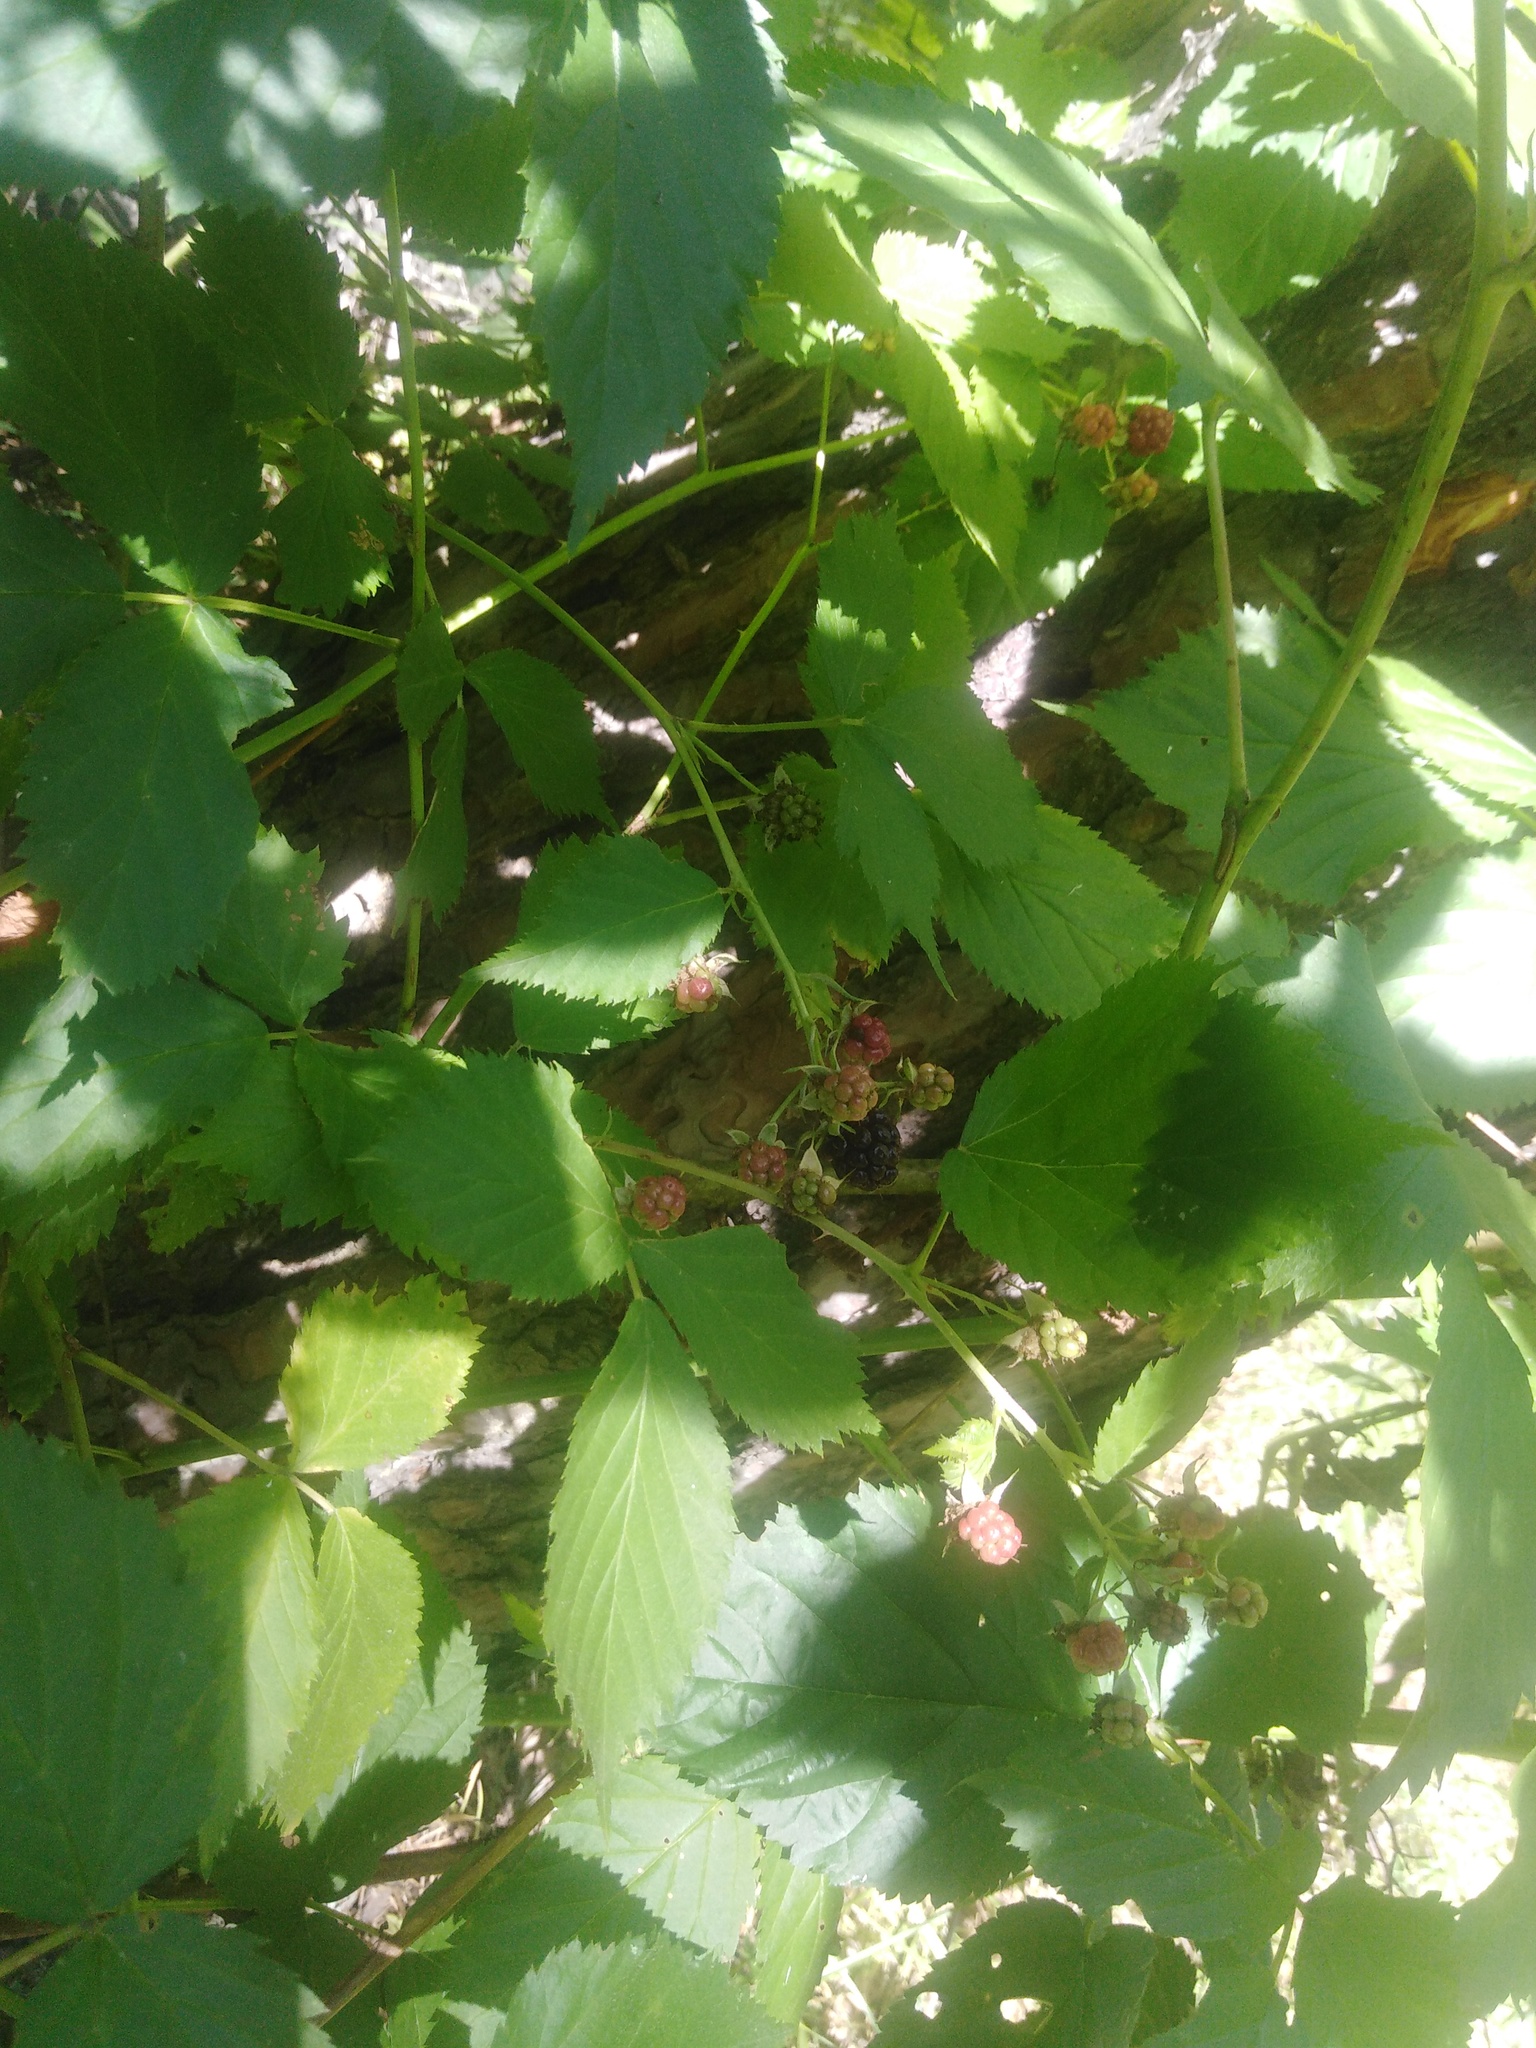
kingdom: Plantae
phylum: Tracheophyta
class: Magnoliopsida
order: Rosales
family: Rosaceae
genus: Rubus
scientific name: Rubus polonicus
